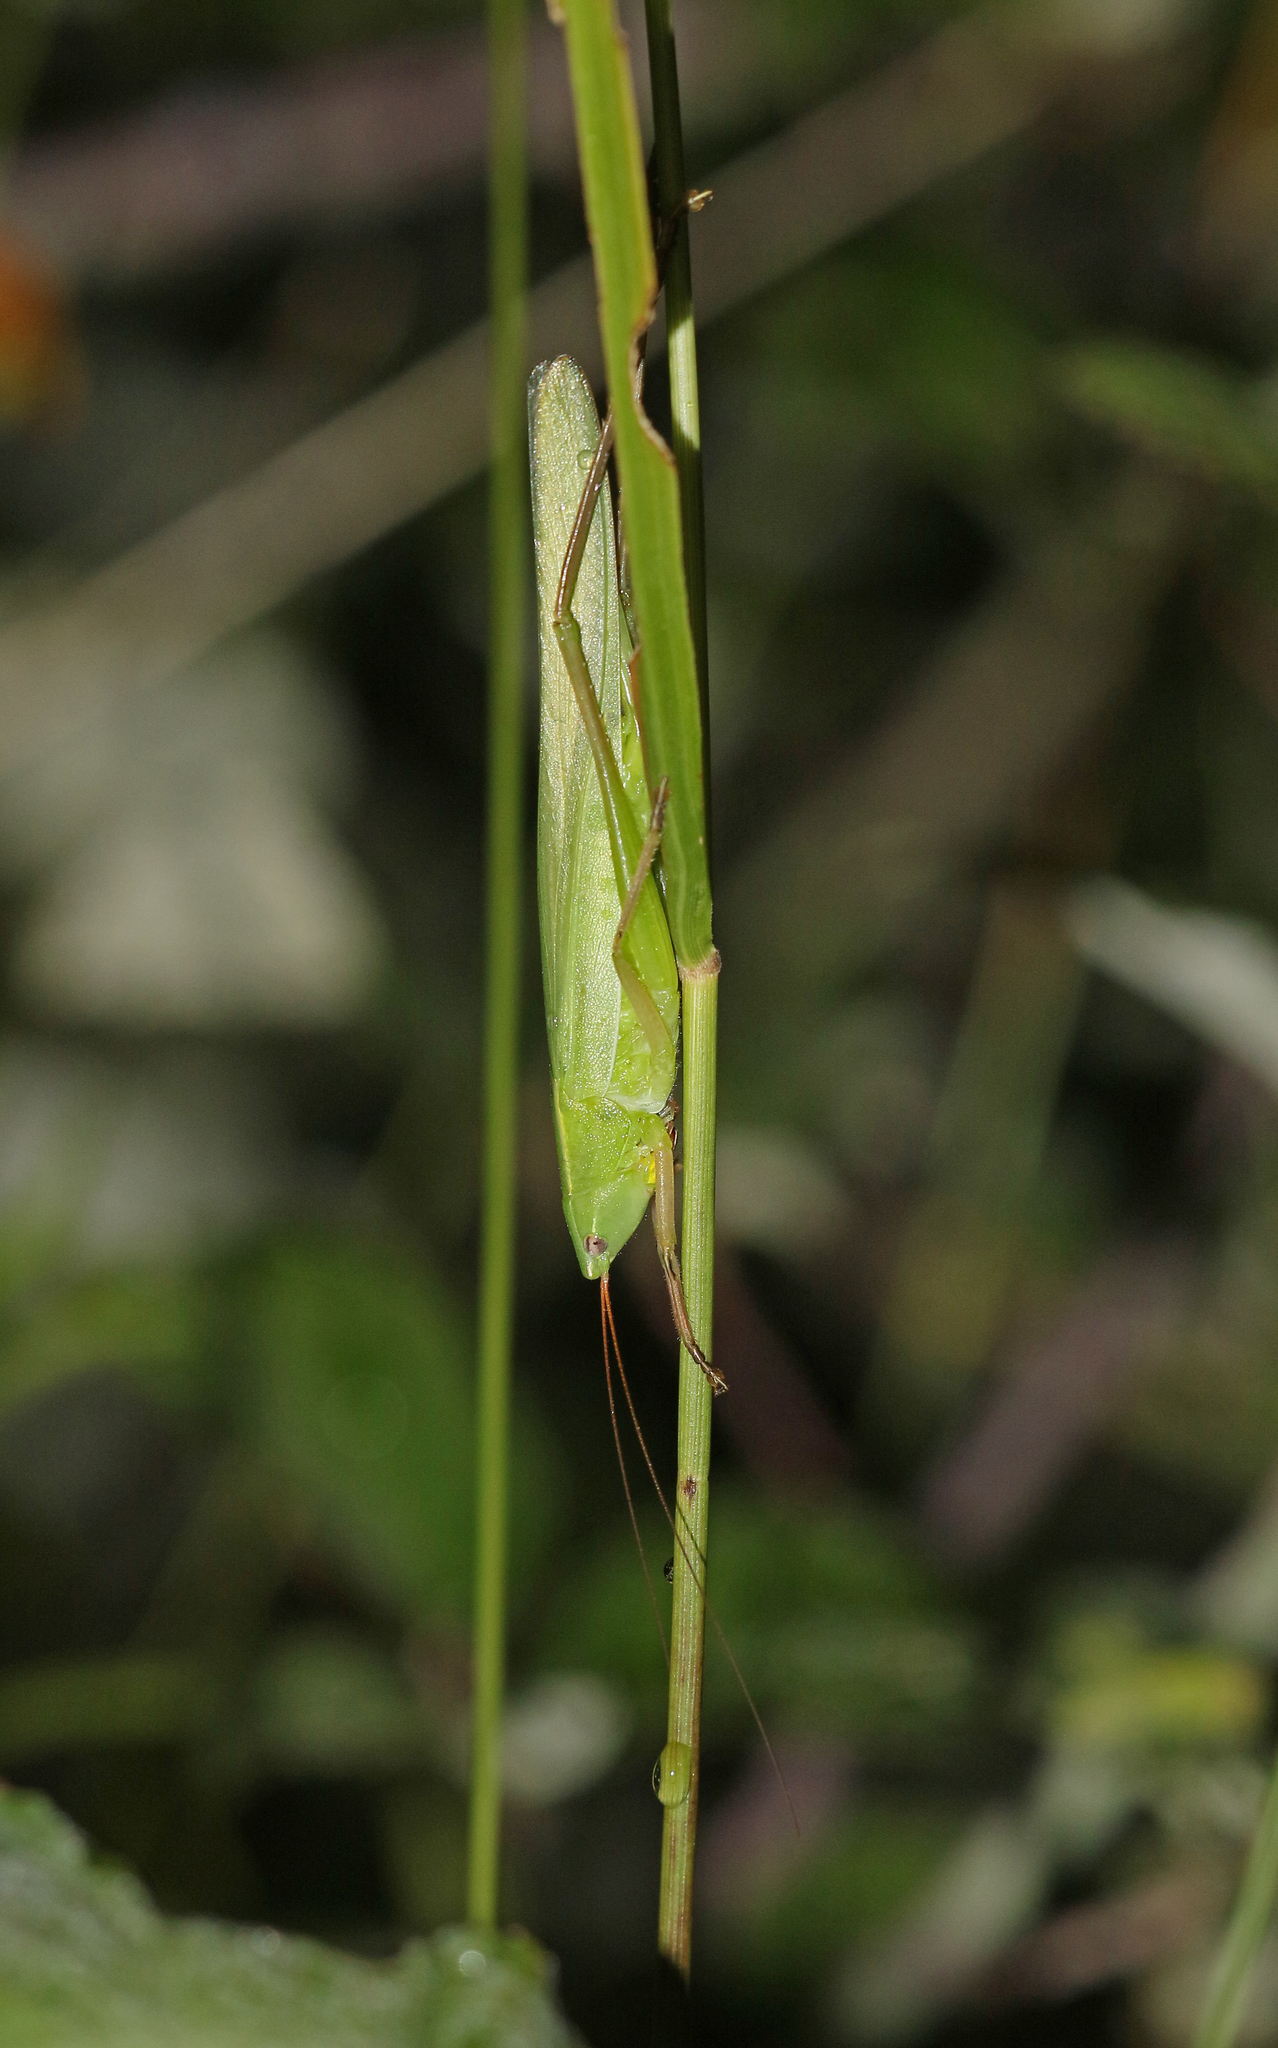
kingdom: Animalia
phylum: Arthropoda
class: Insecta
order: Orthoptera
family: Tettigoniidae
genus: Ruspolia
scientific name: Ruspolia nitidula
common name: Large conehead
